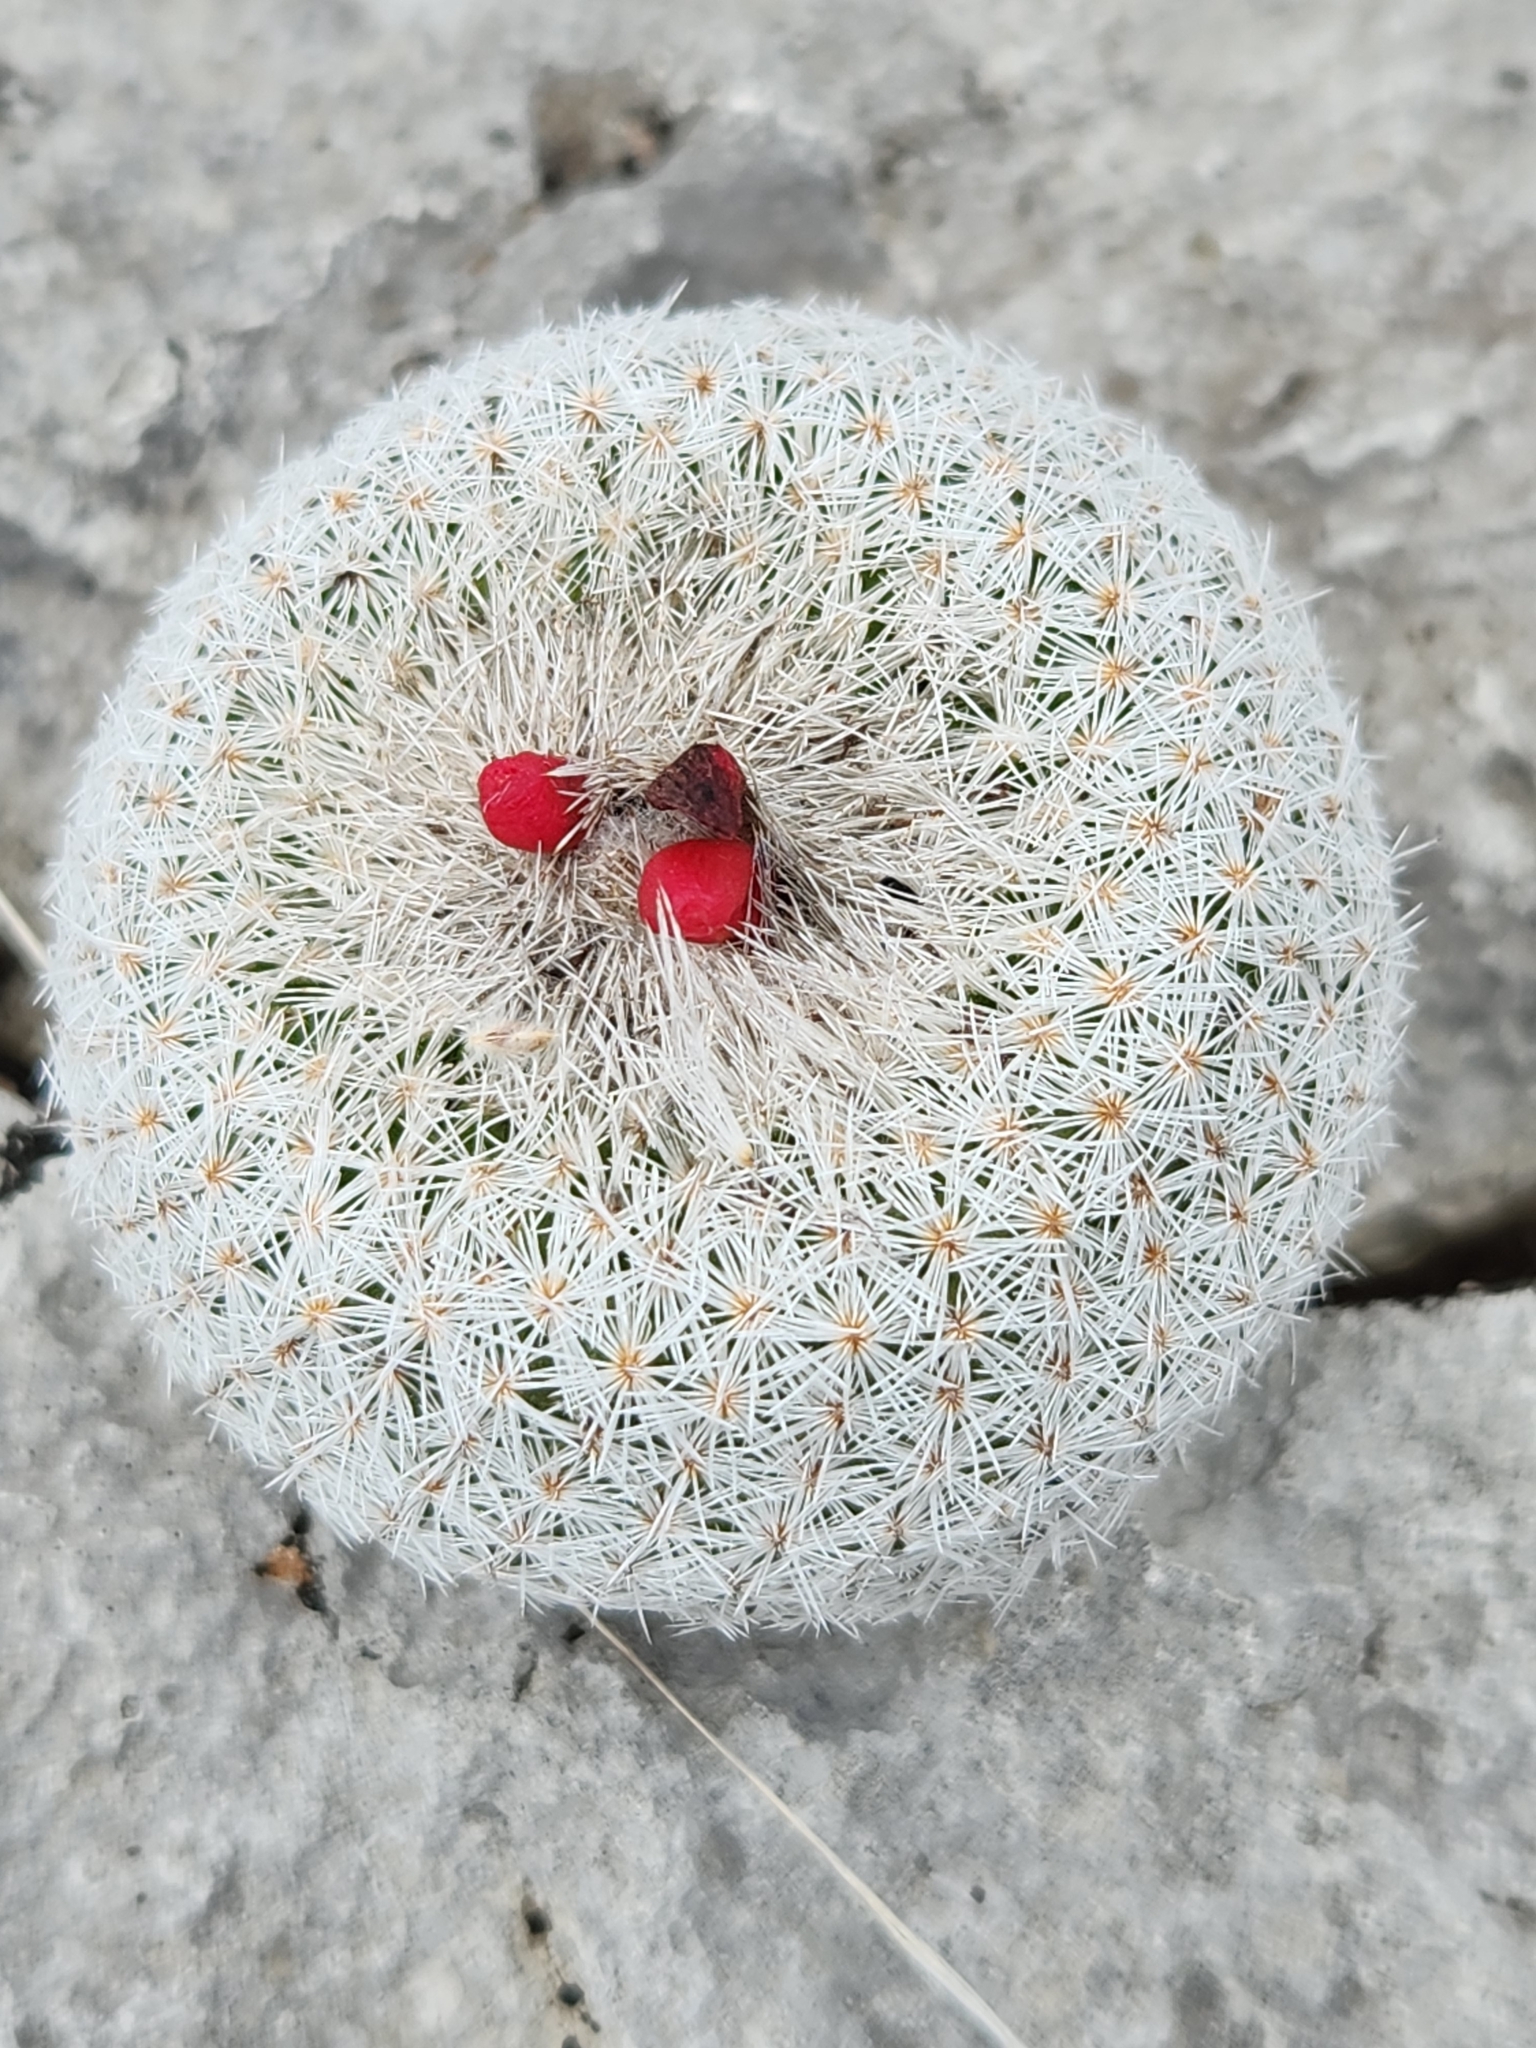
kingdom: Plantae
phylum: Tracheophyta
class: Magnoliopsida
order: Caryophyllales
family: Cactaceae
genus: Epithelantha
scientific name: Epithelantha micromeris
